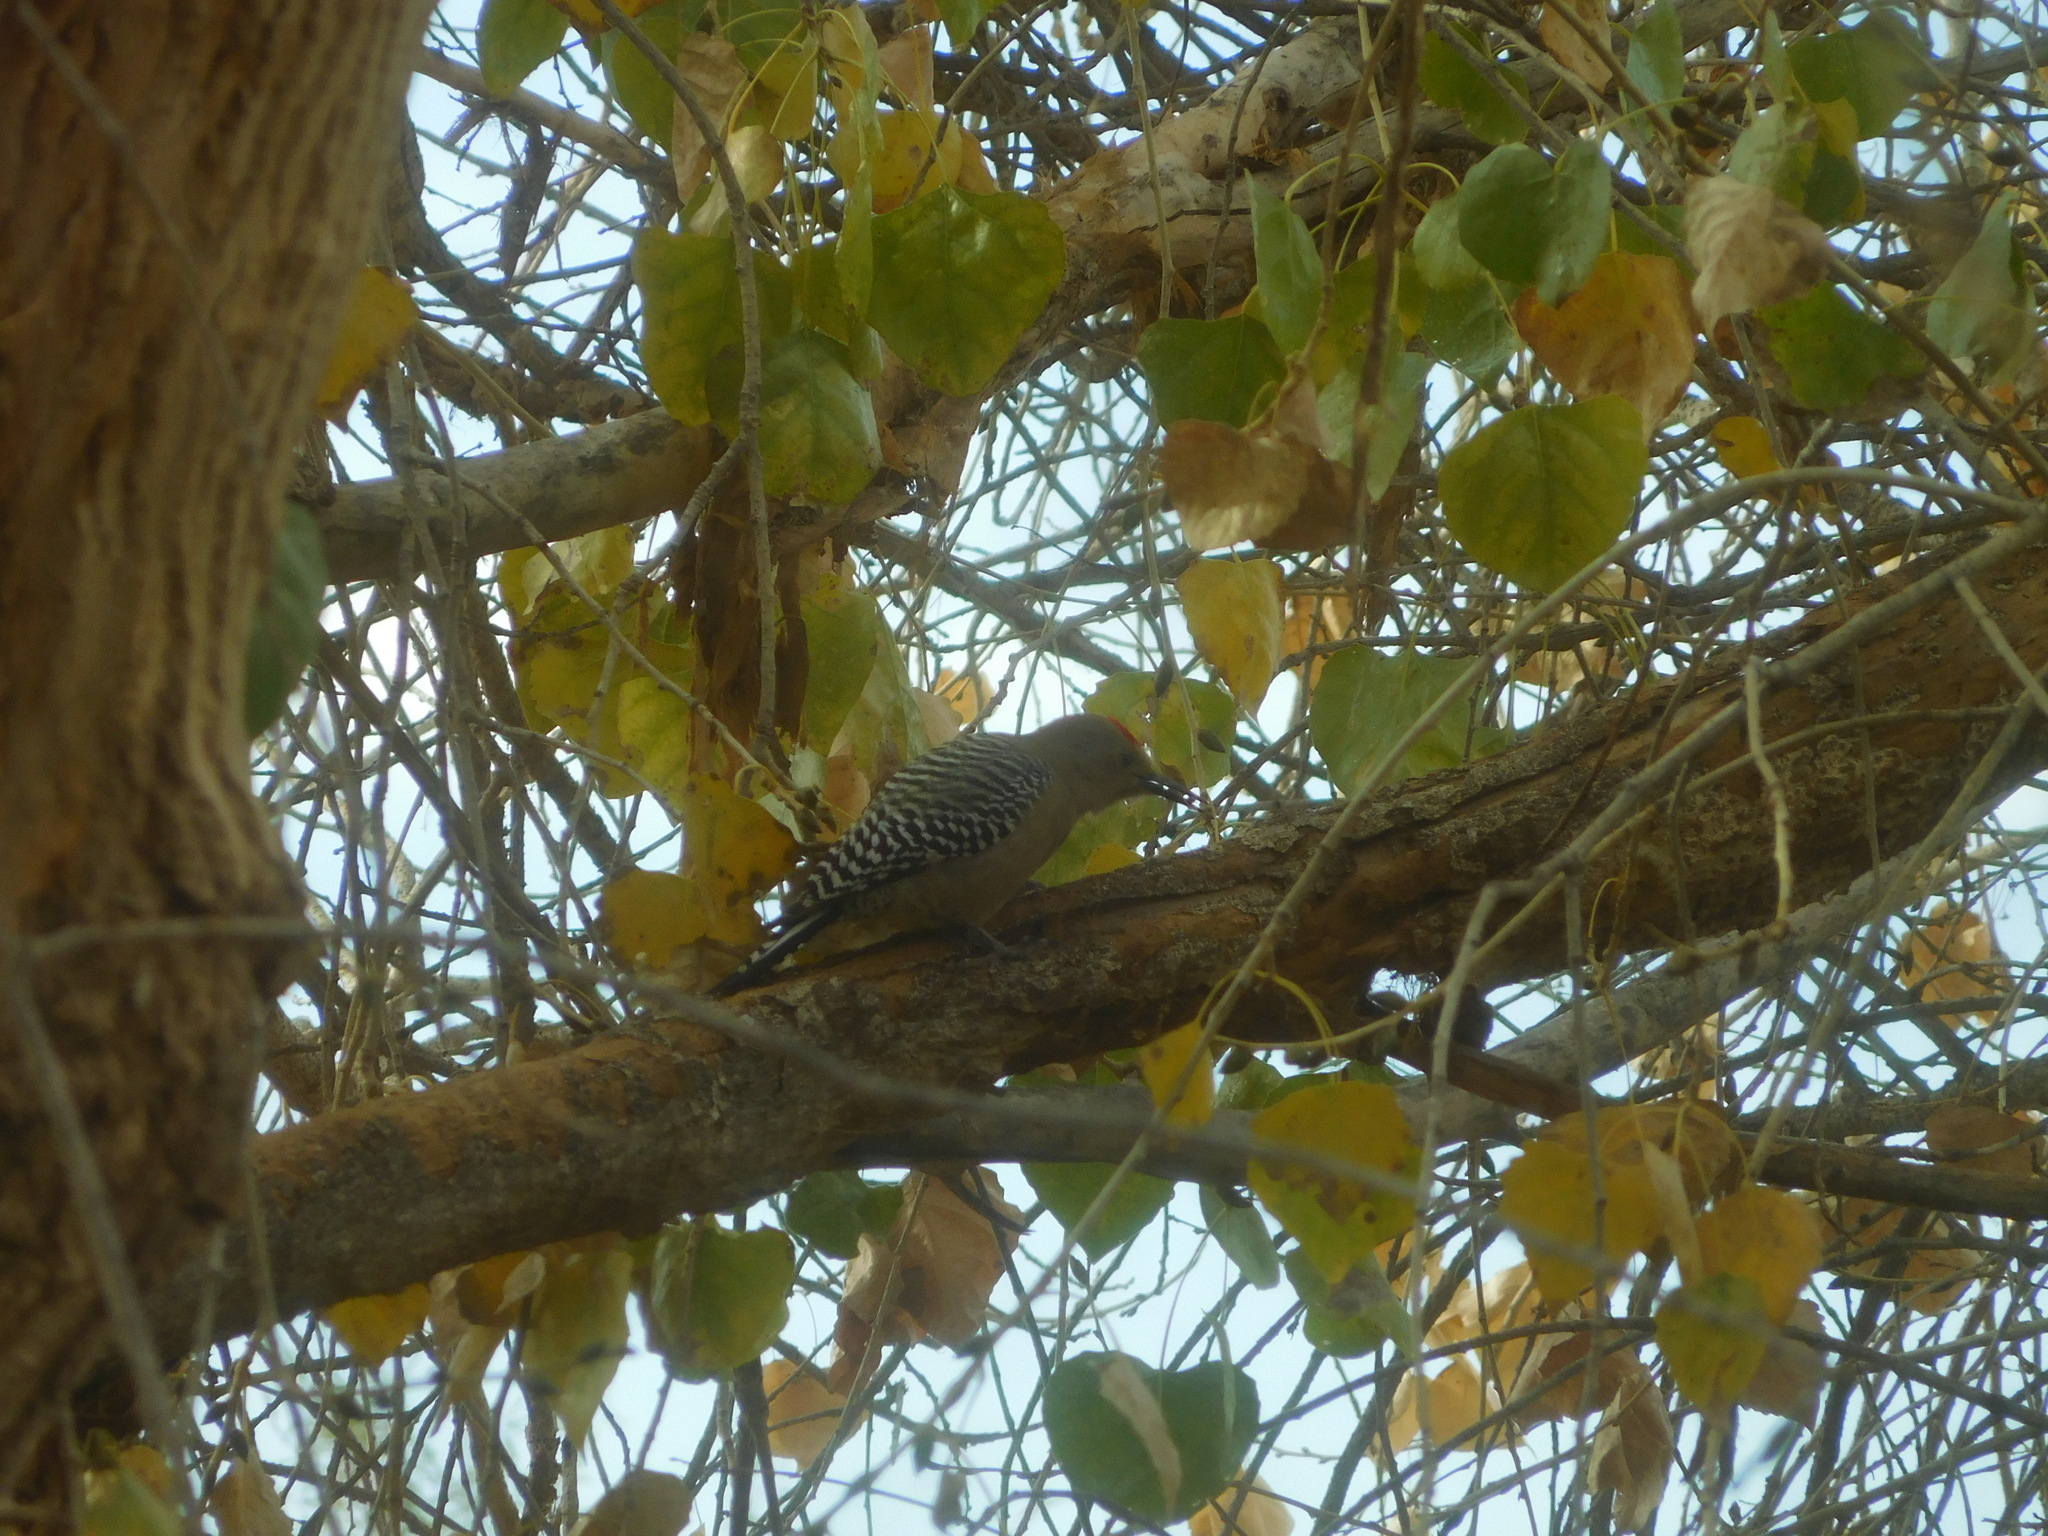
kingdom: Animalia
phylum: Chordata
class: Aves
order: Piciformes
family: Picidae
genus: Melanerpes
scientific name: Melanerpes uropygialis
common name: Gila woodpecker
